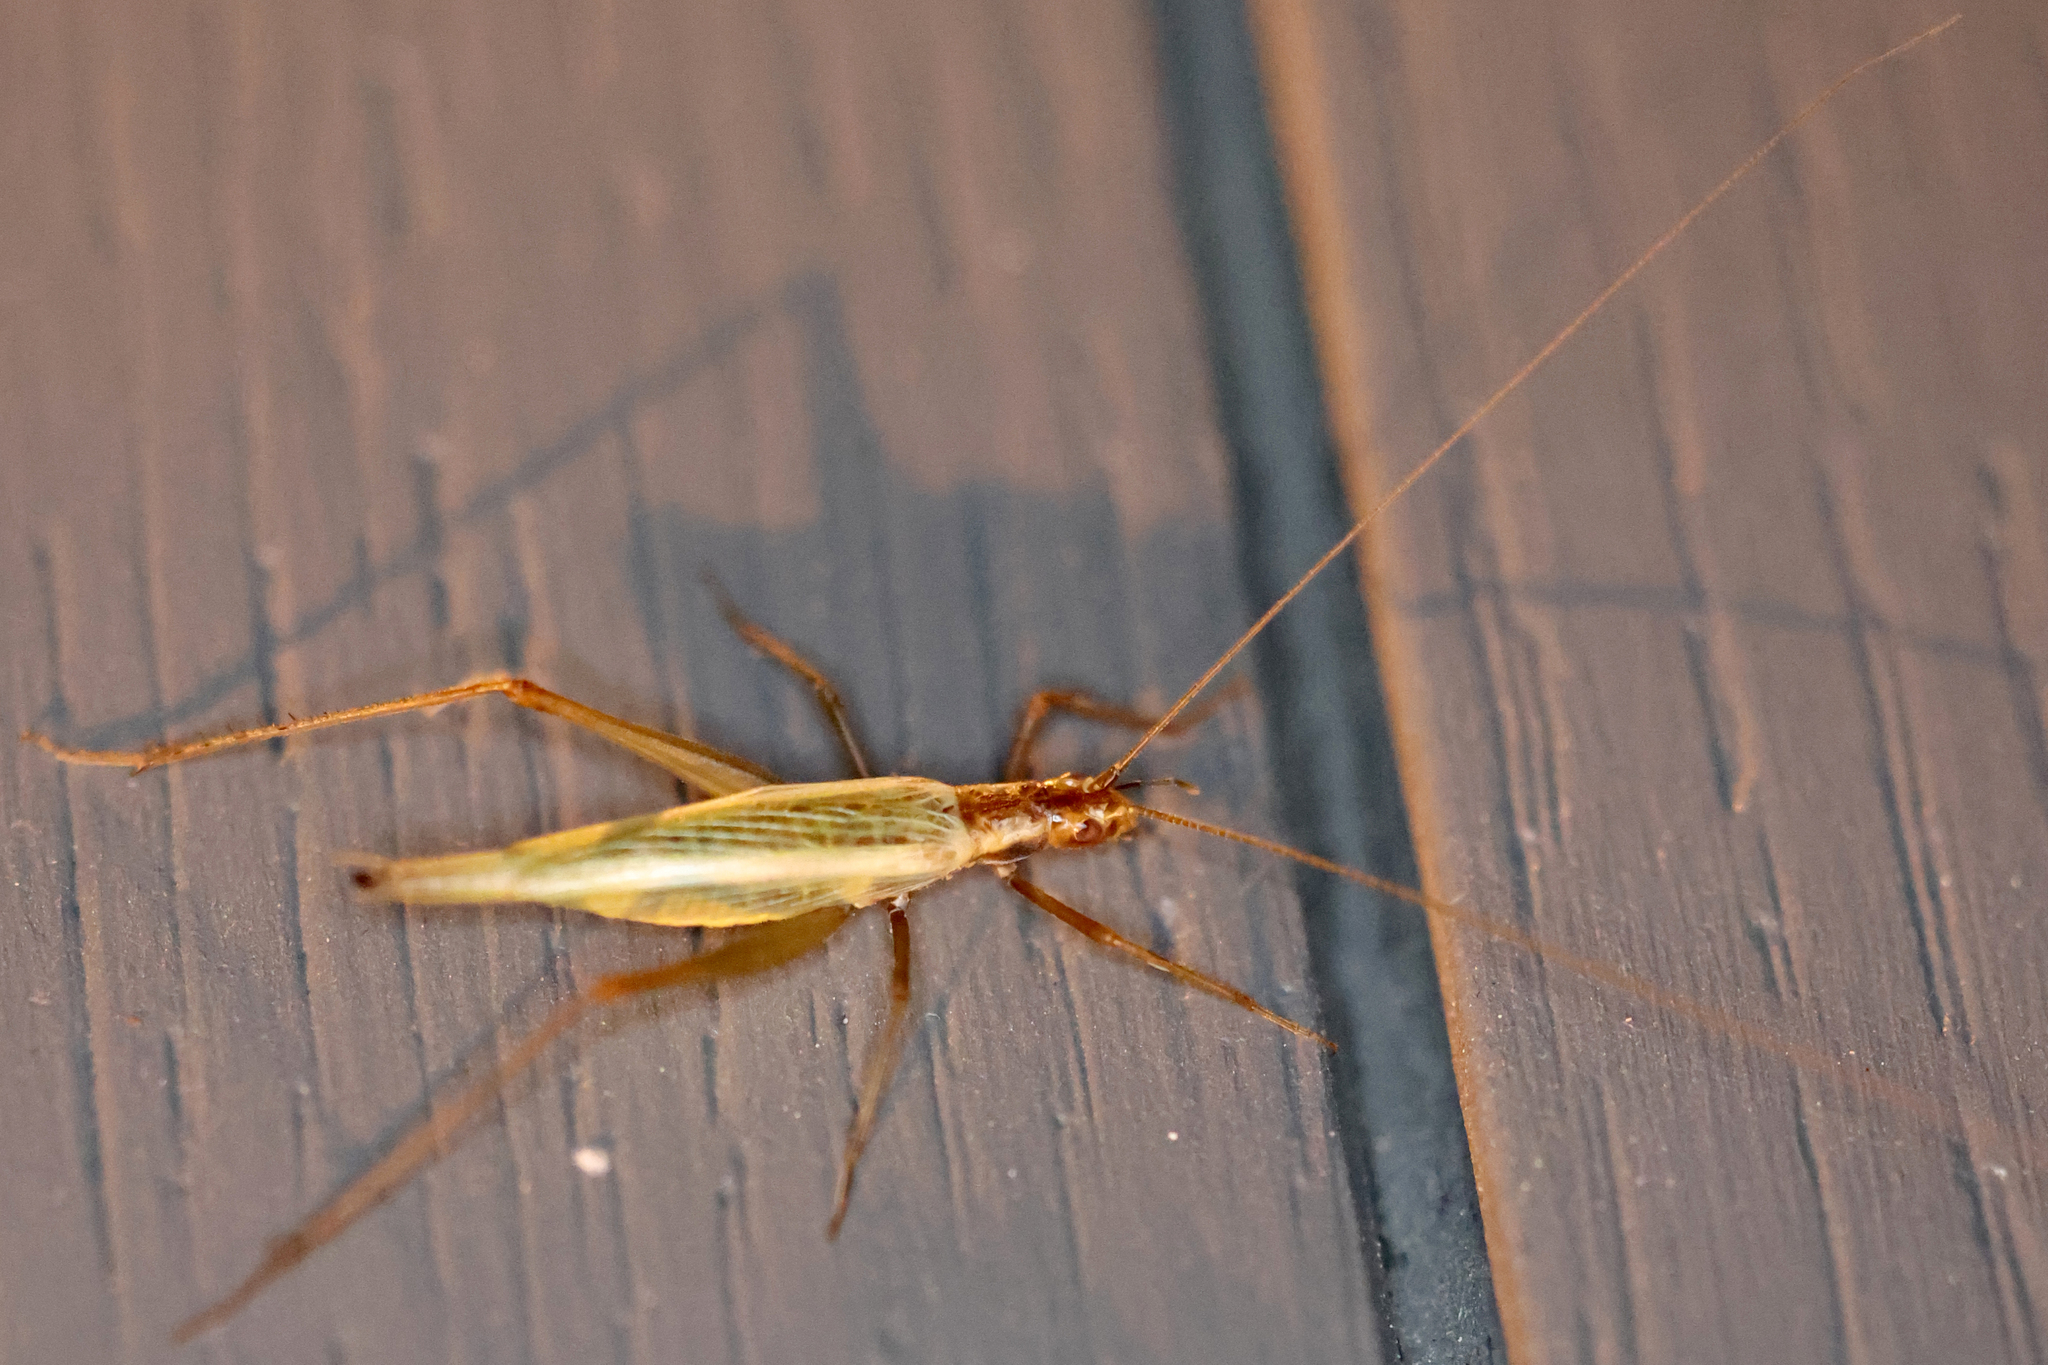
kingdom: Animalia
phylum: Arthropoda
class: Insecta
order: Orthoptera
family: Gryllidae
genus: Oecanthus
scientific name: Oecanthus pini
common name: Pine tree cricket
